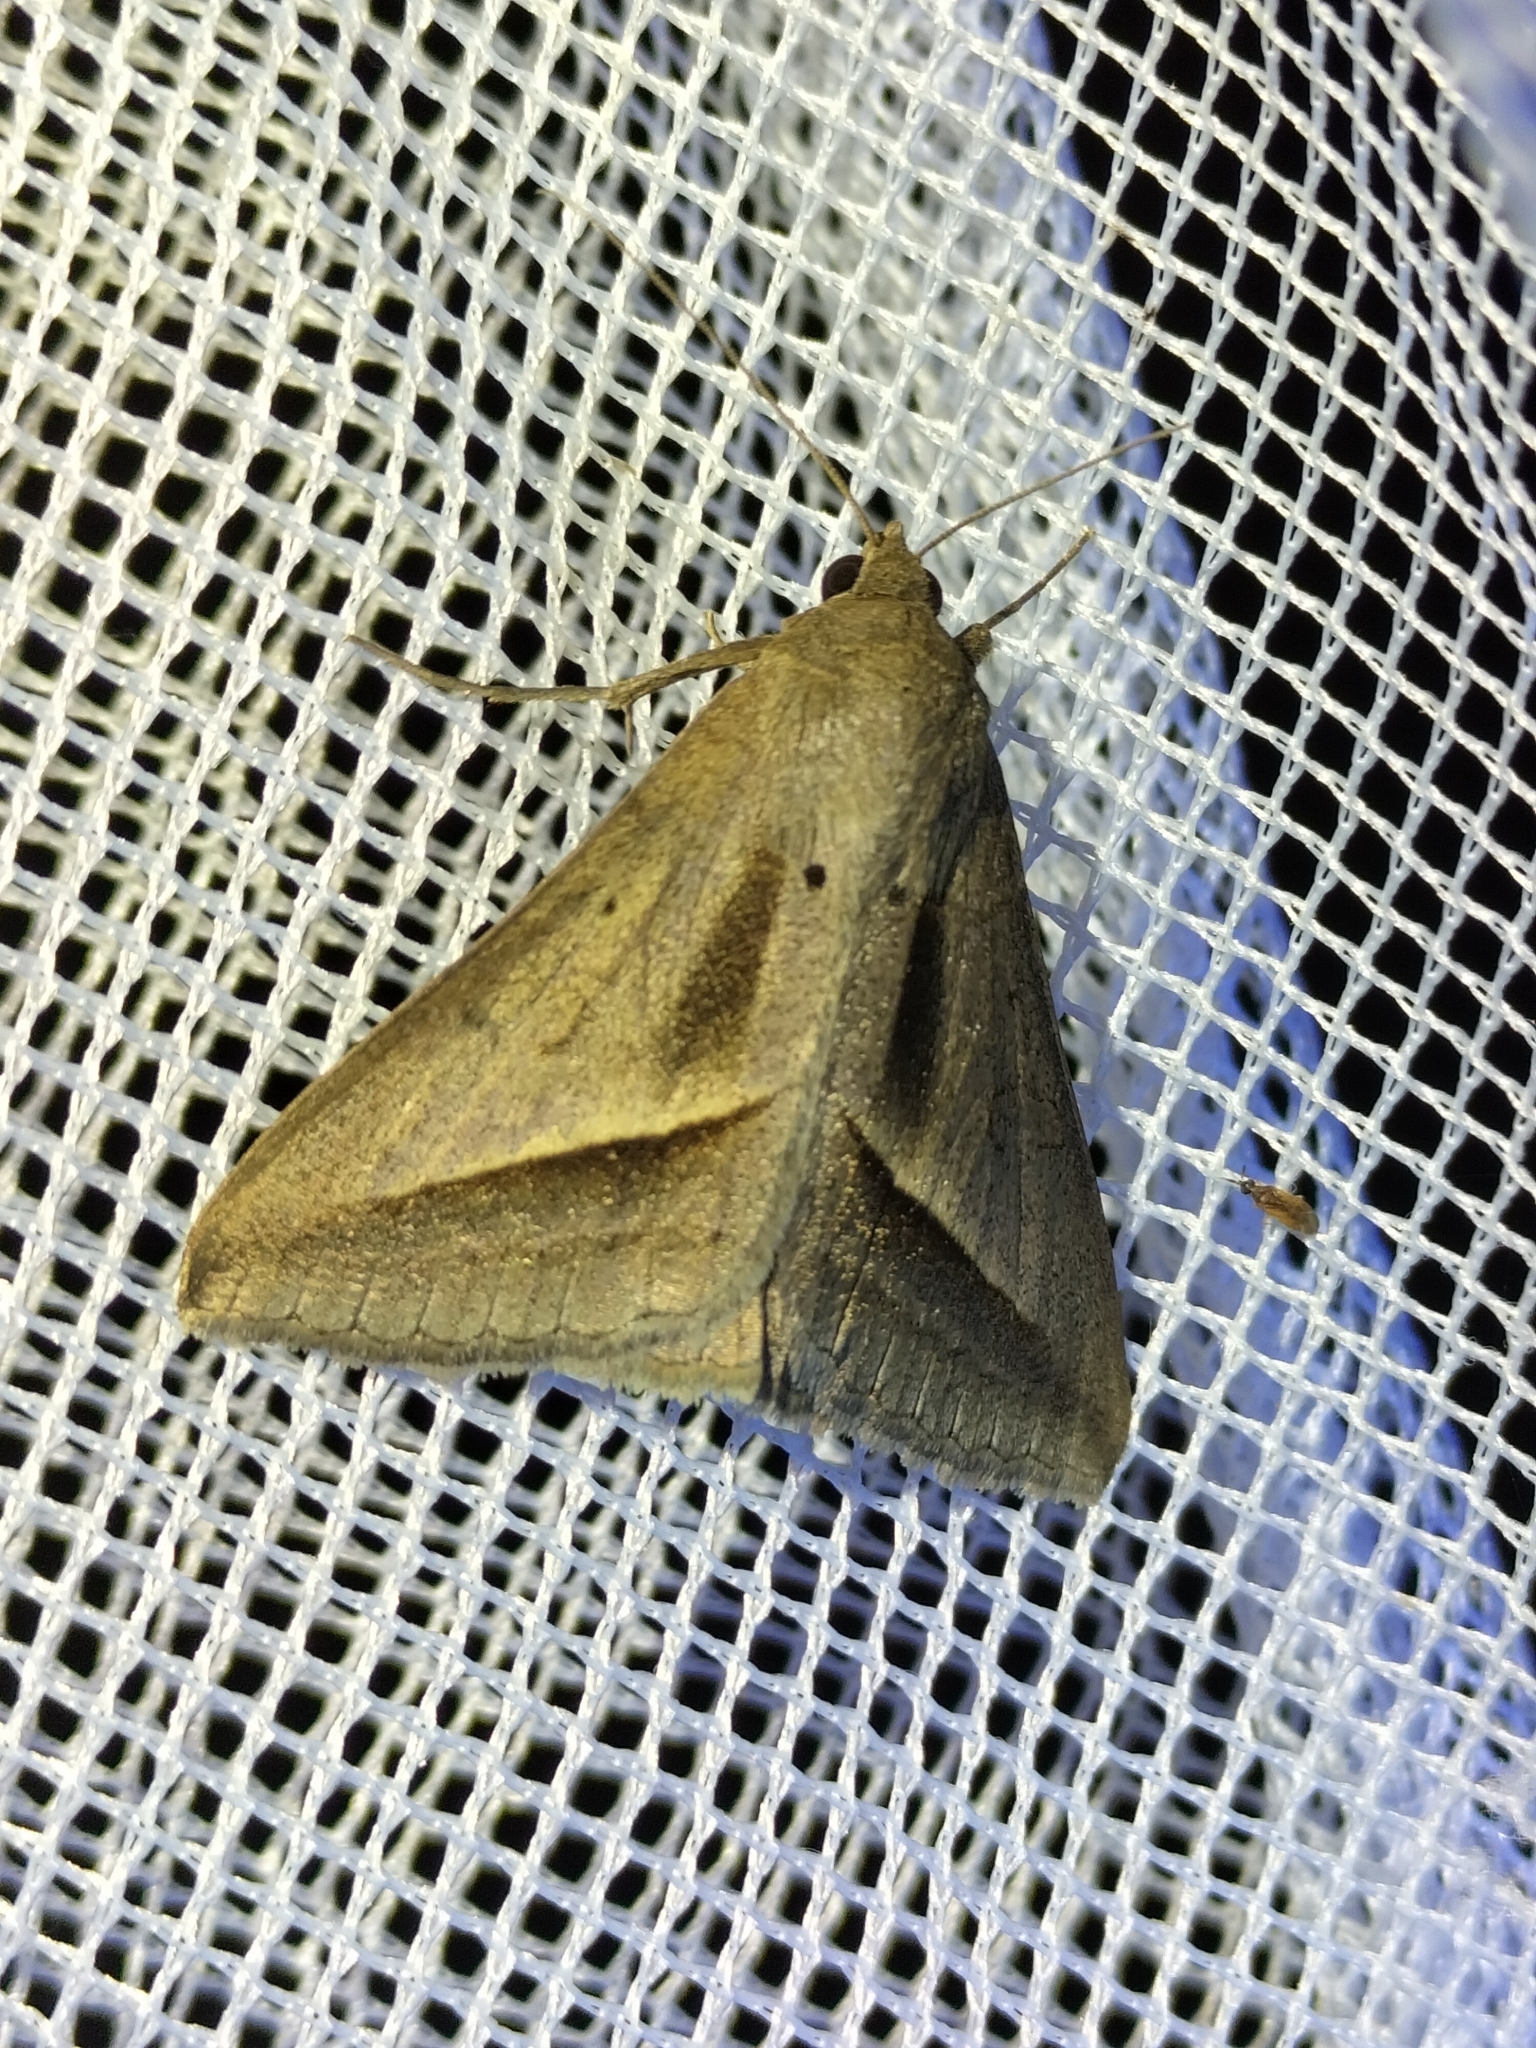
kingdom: Animalia
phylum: Arthropoda
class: Insecta
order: Lepidoptera
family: Erebidae
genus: Mocis
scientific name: Mocis frugalis
